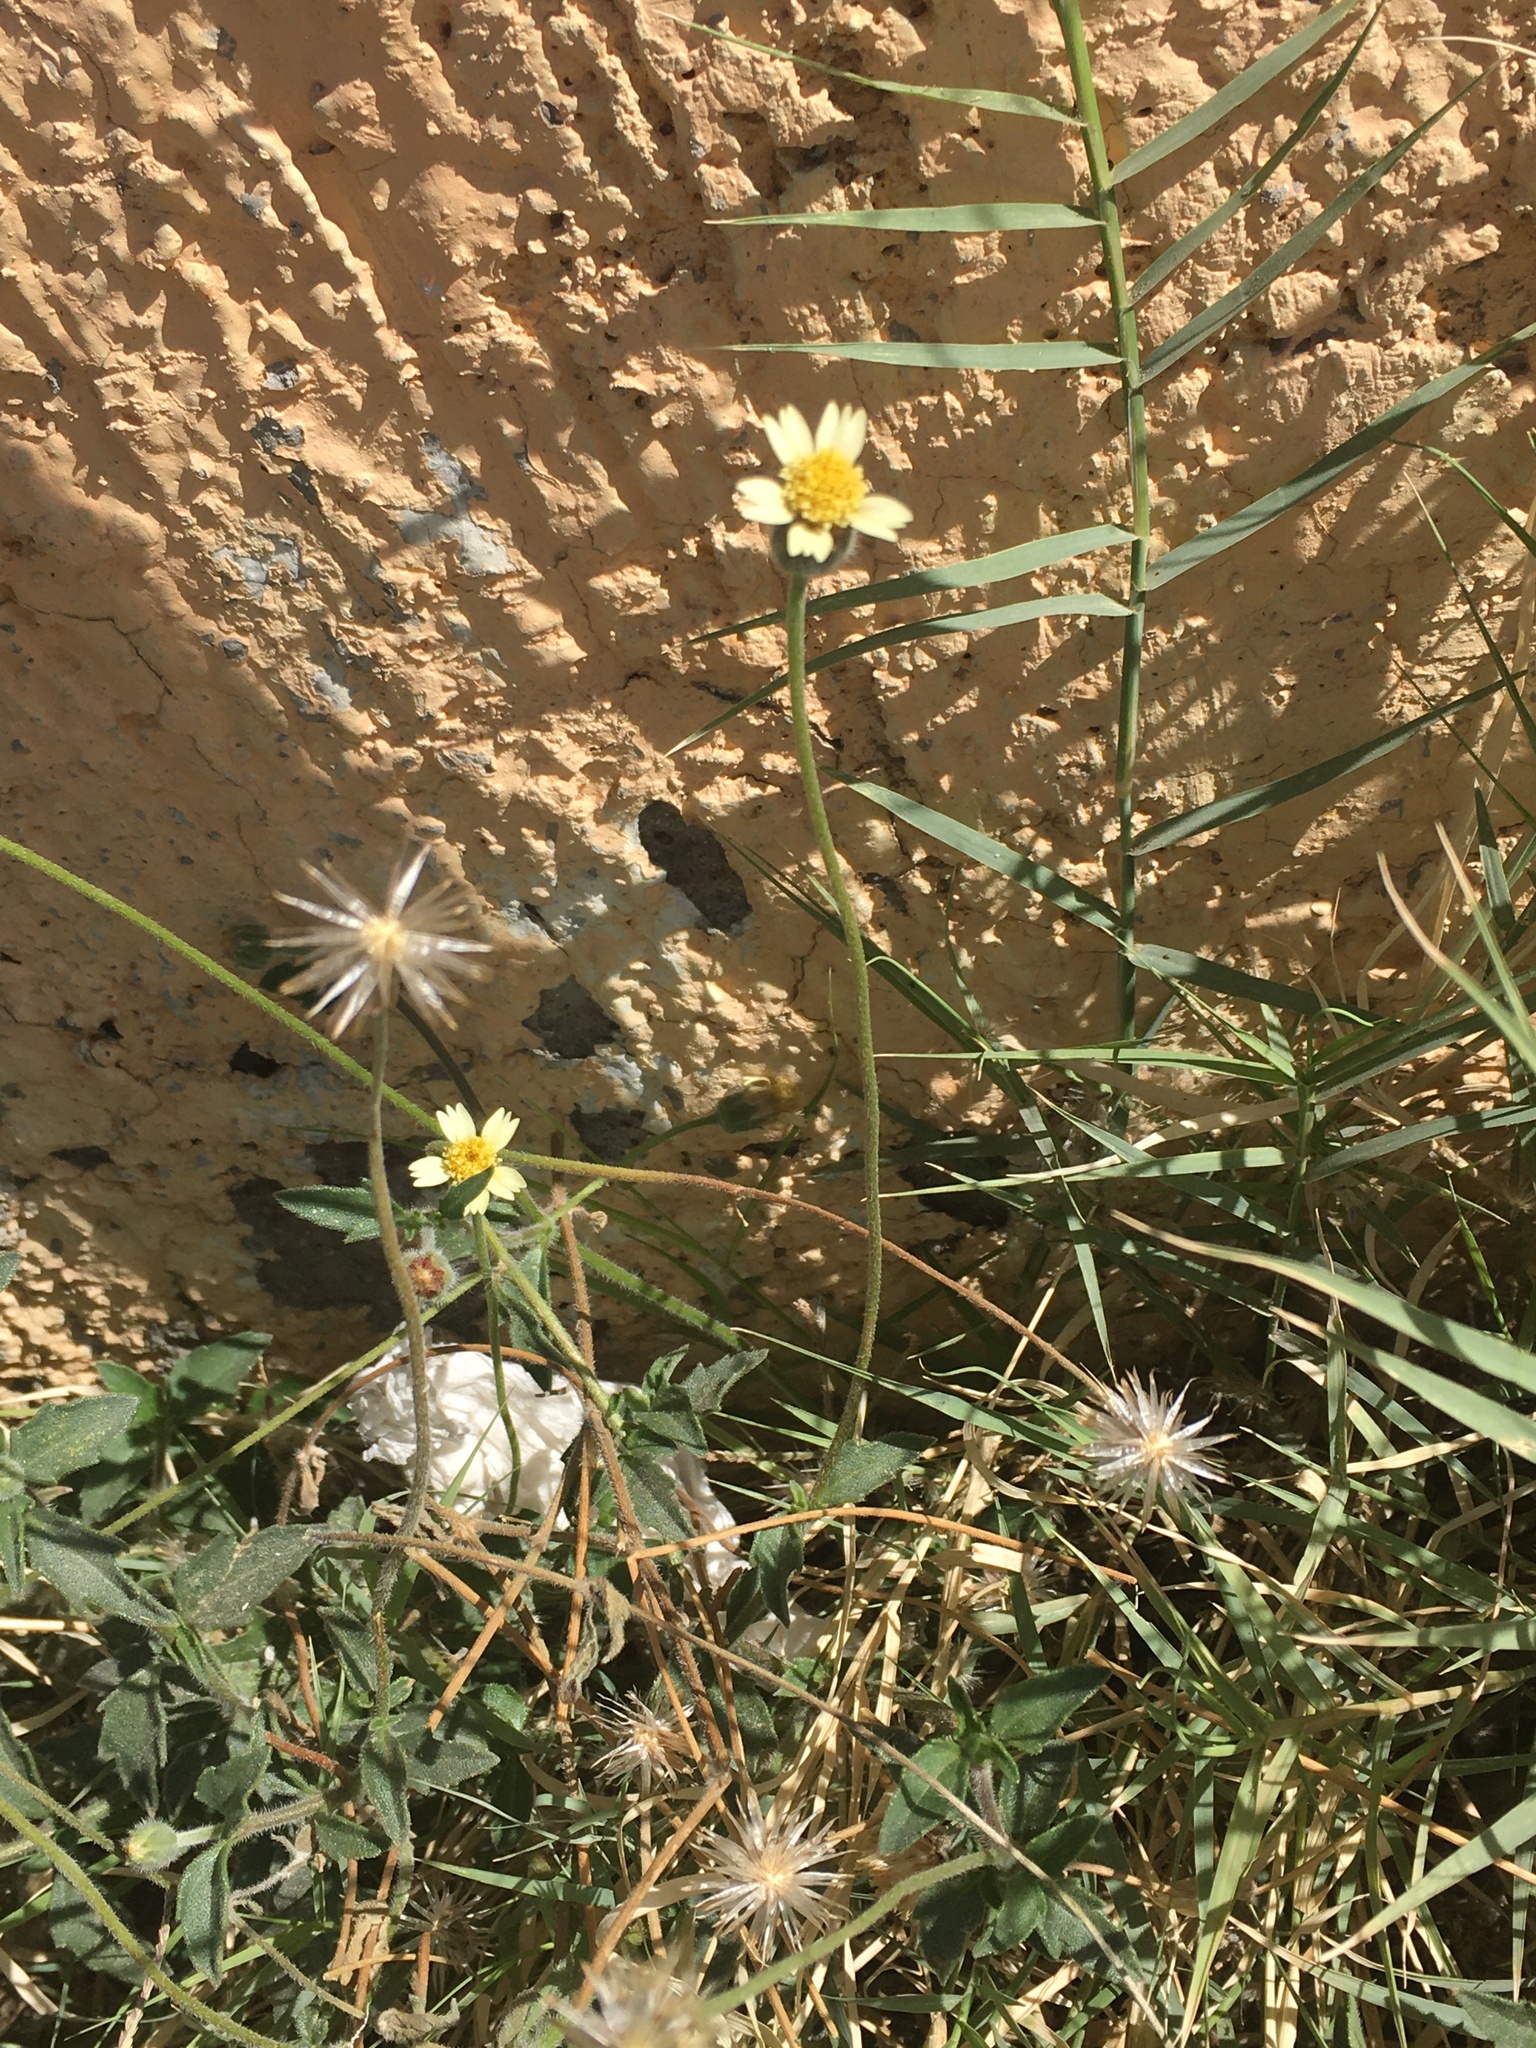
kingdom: Plantae
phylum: Tracheophyta
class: Magnoliopsida
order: Asterales
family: Asteraceae
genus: Tridax
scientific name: Tridax procumbens
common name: Coatbuttons
